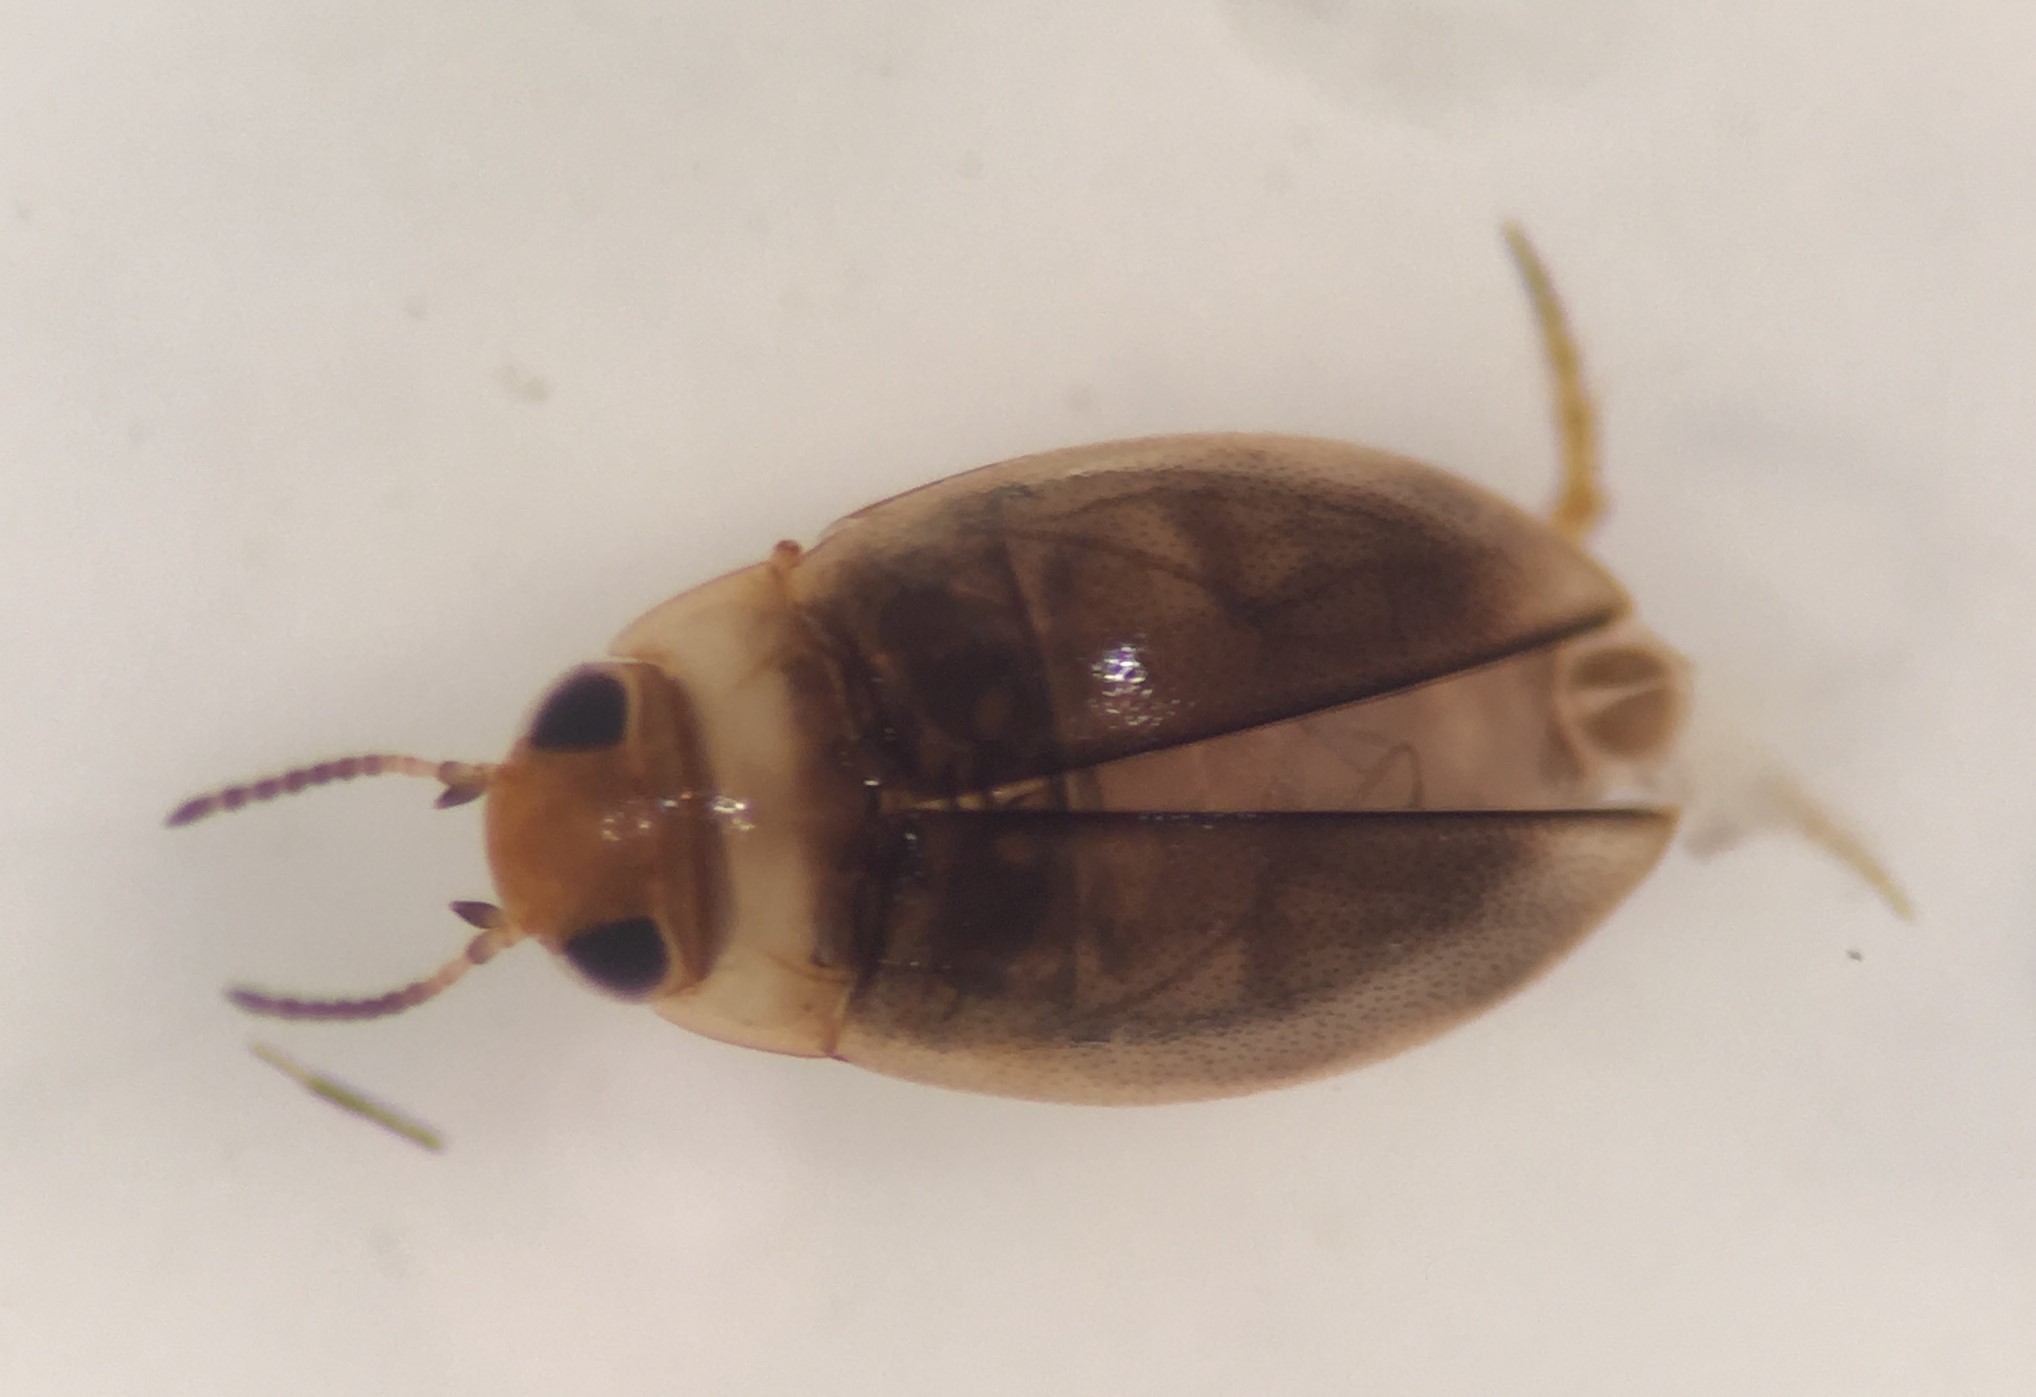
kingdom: Animalia
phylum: Arthropoda
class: Insecta
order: Coleoptera
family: Dytiscidae
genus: Uvarus
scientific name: Uvarus lacustris
